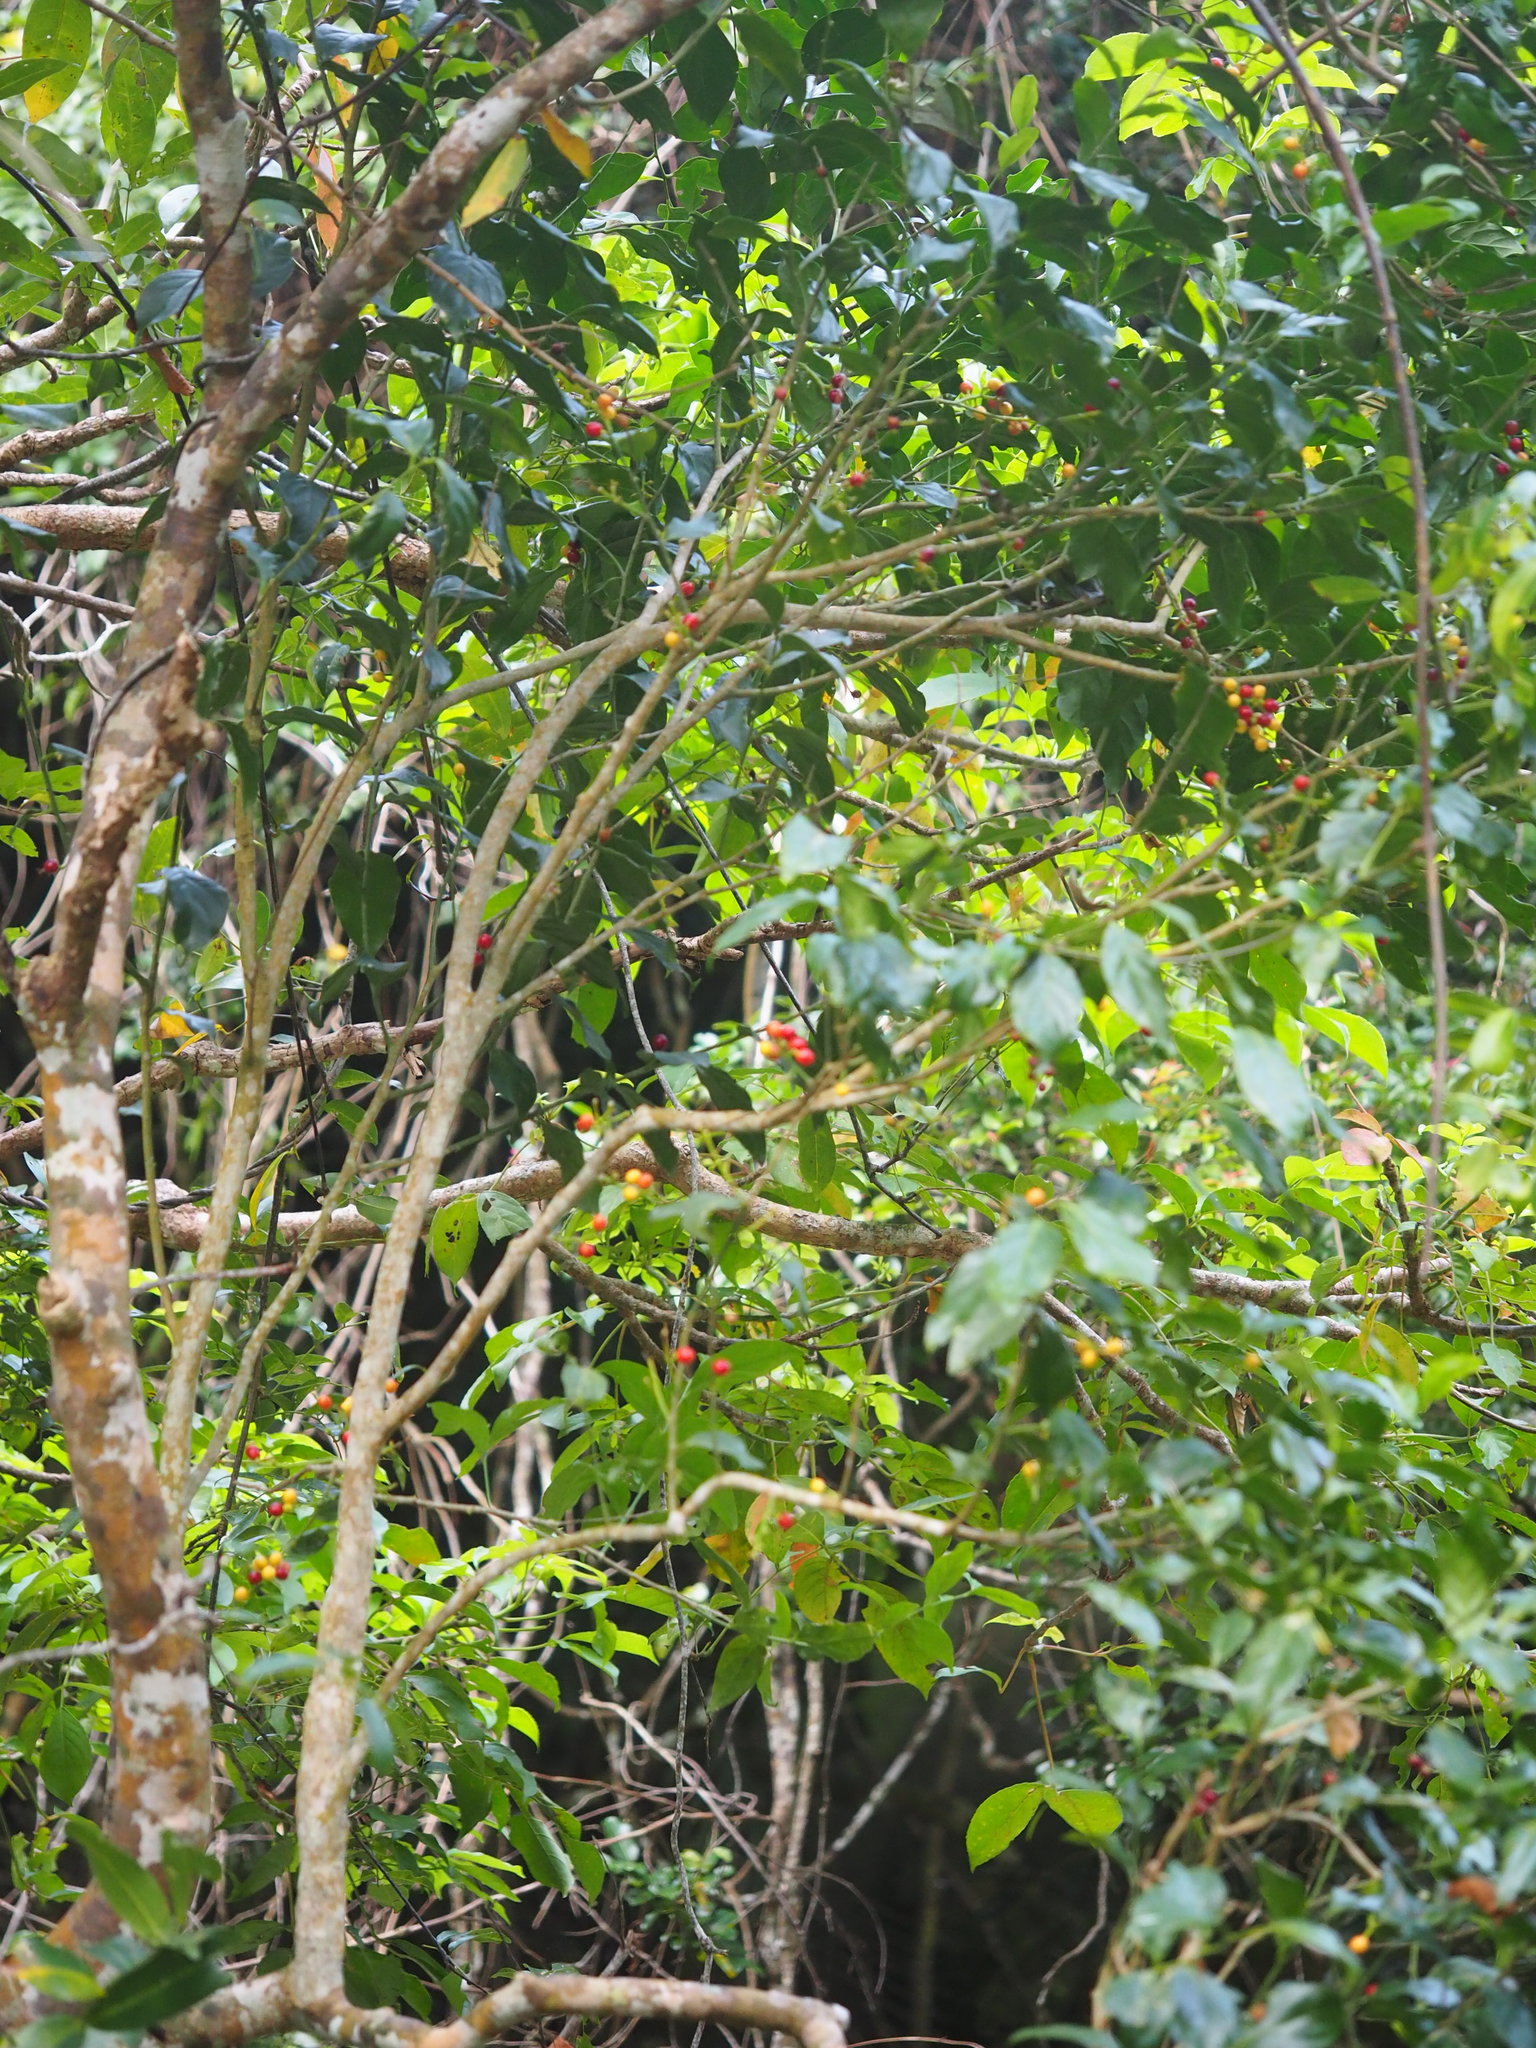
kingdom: Plantae
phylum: Tracheophyta
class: Magnoliopsida
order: Santalales
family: Opiliaceae
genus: Champereia
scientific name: Champereia manillana
